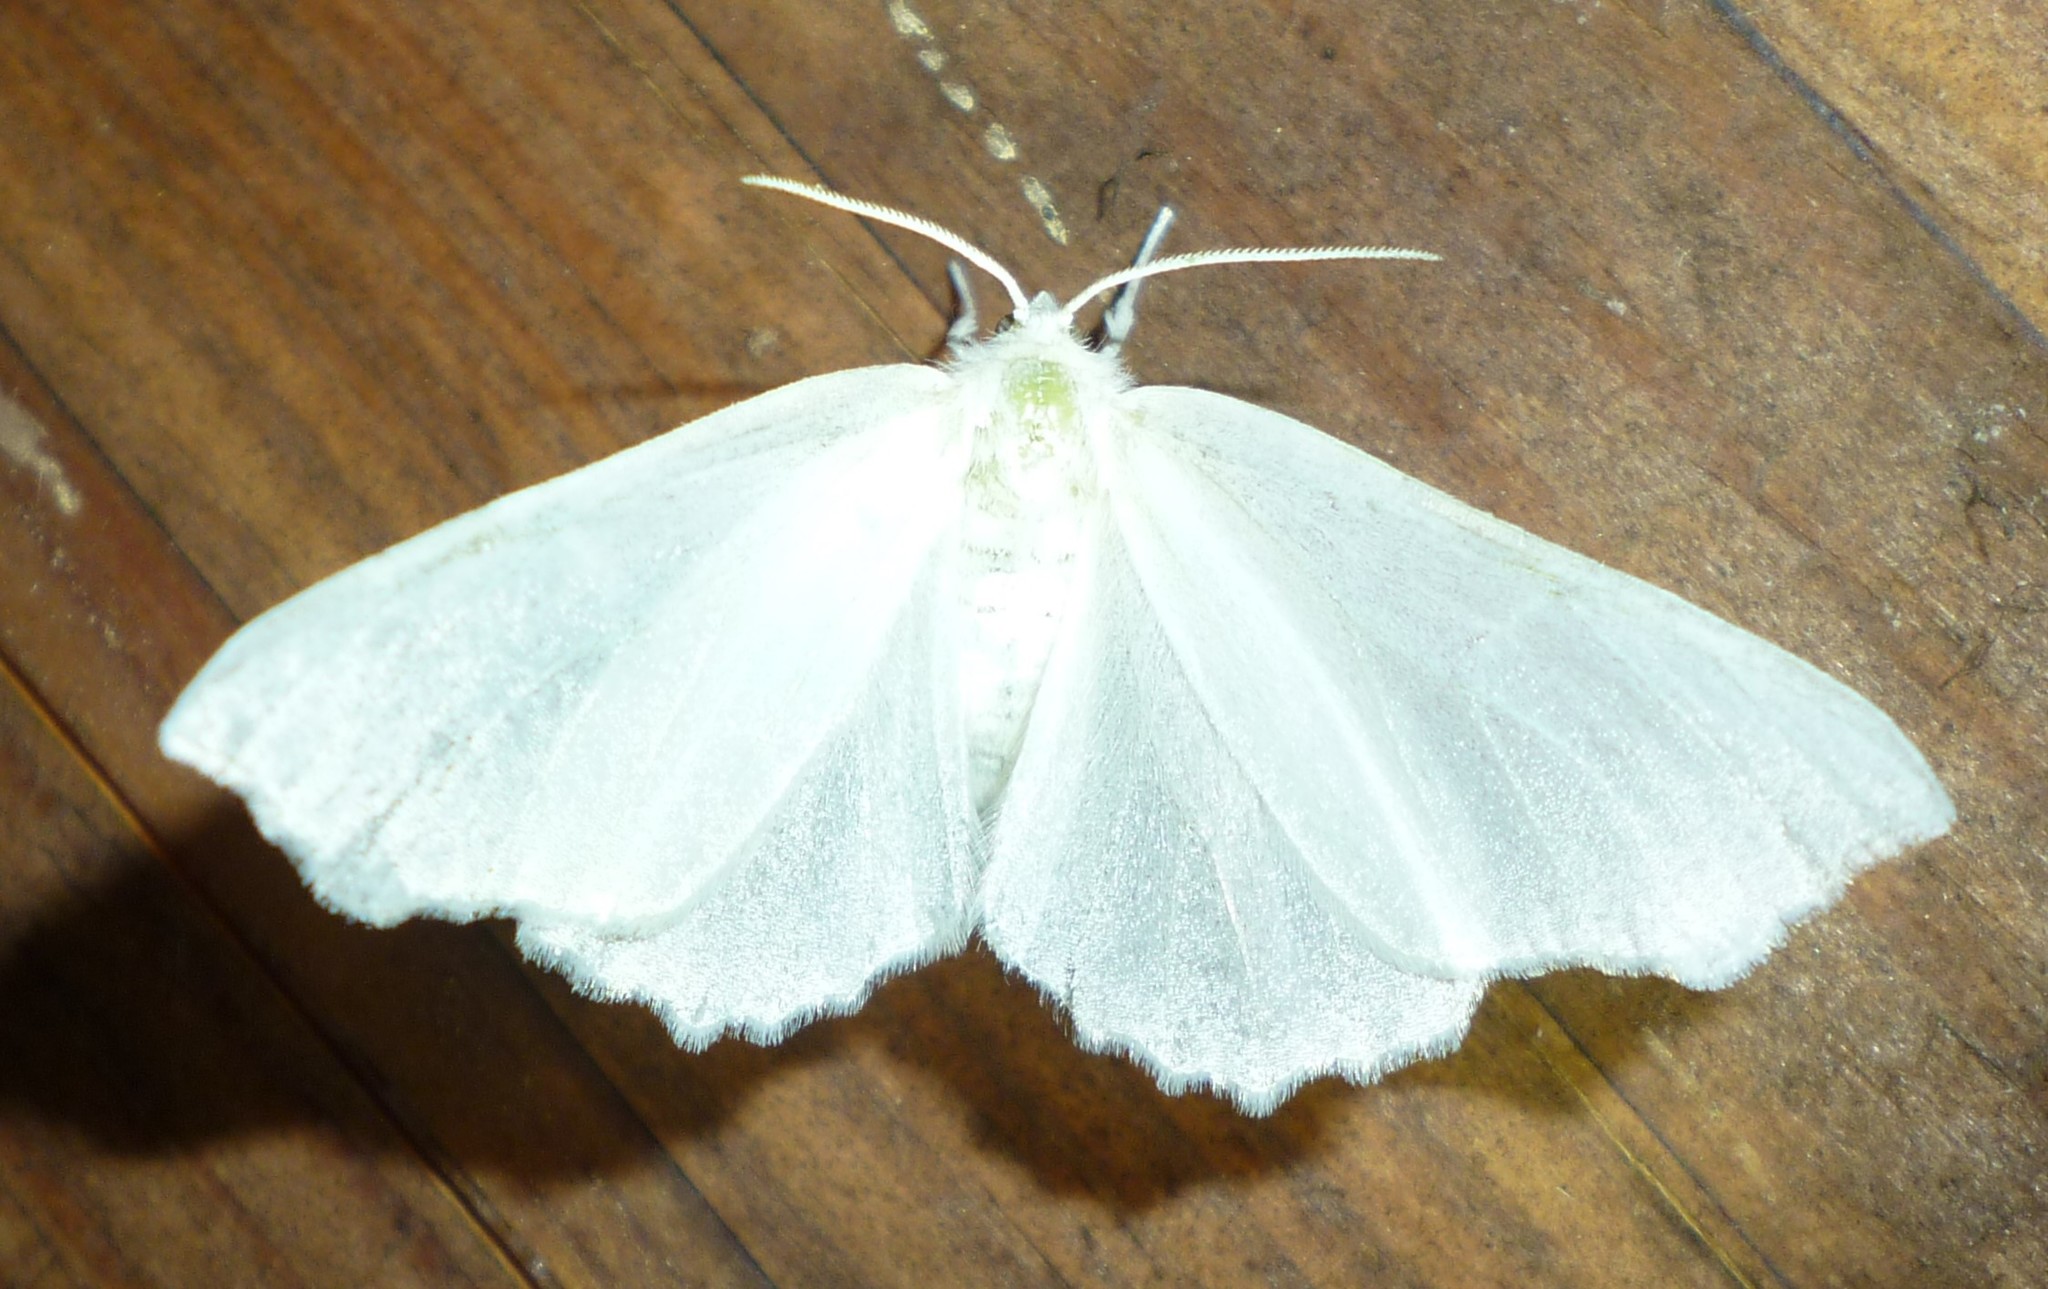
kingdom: Animalia
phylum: Arthropoda
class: Insecta
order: Lepidoptera
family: Geometridae
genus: Ennomos
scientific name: Ennomos subsignaria
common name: Elm spanworm
